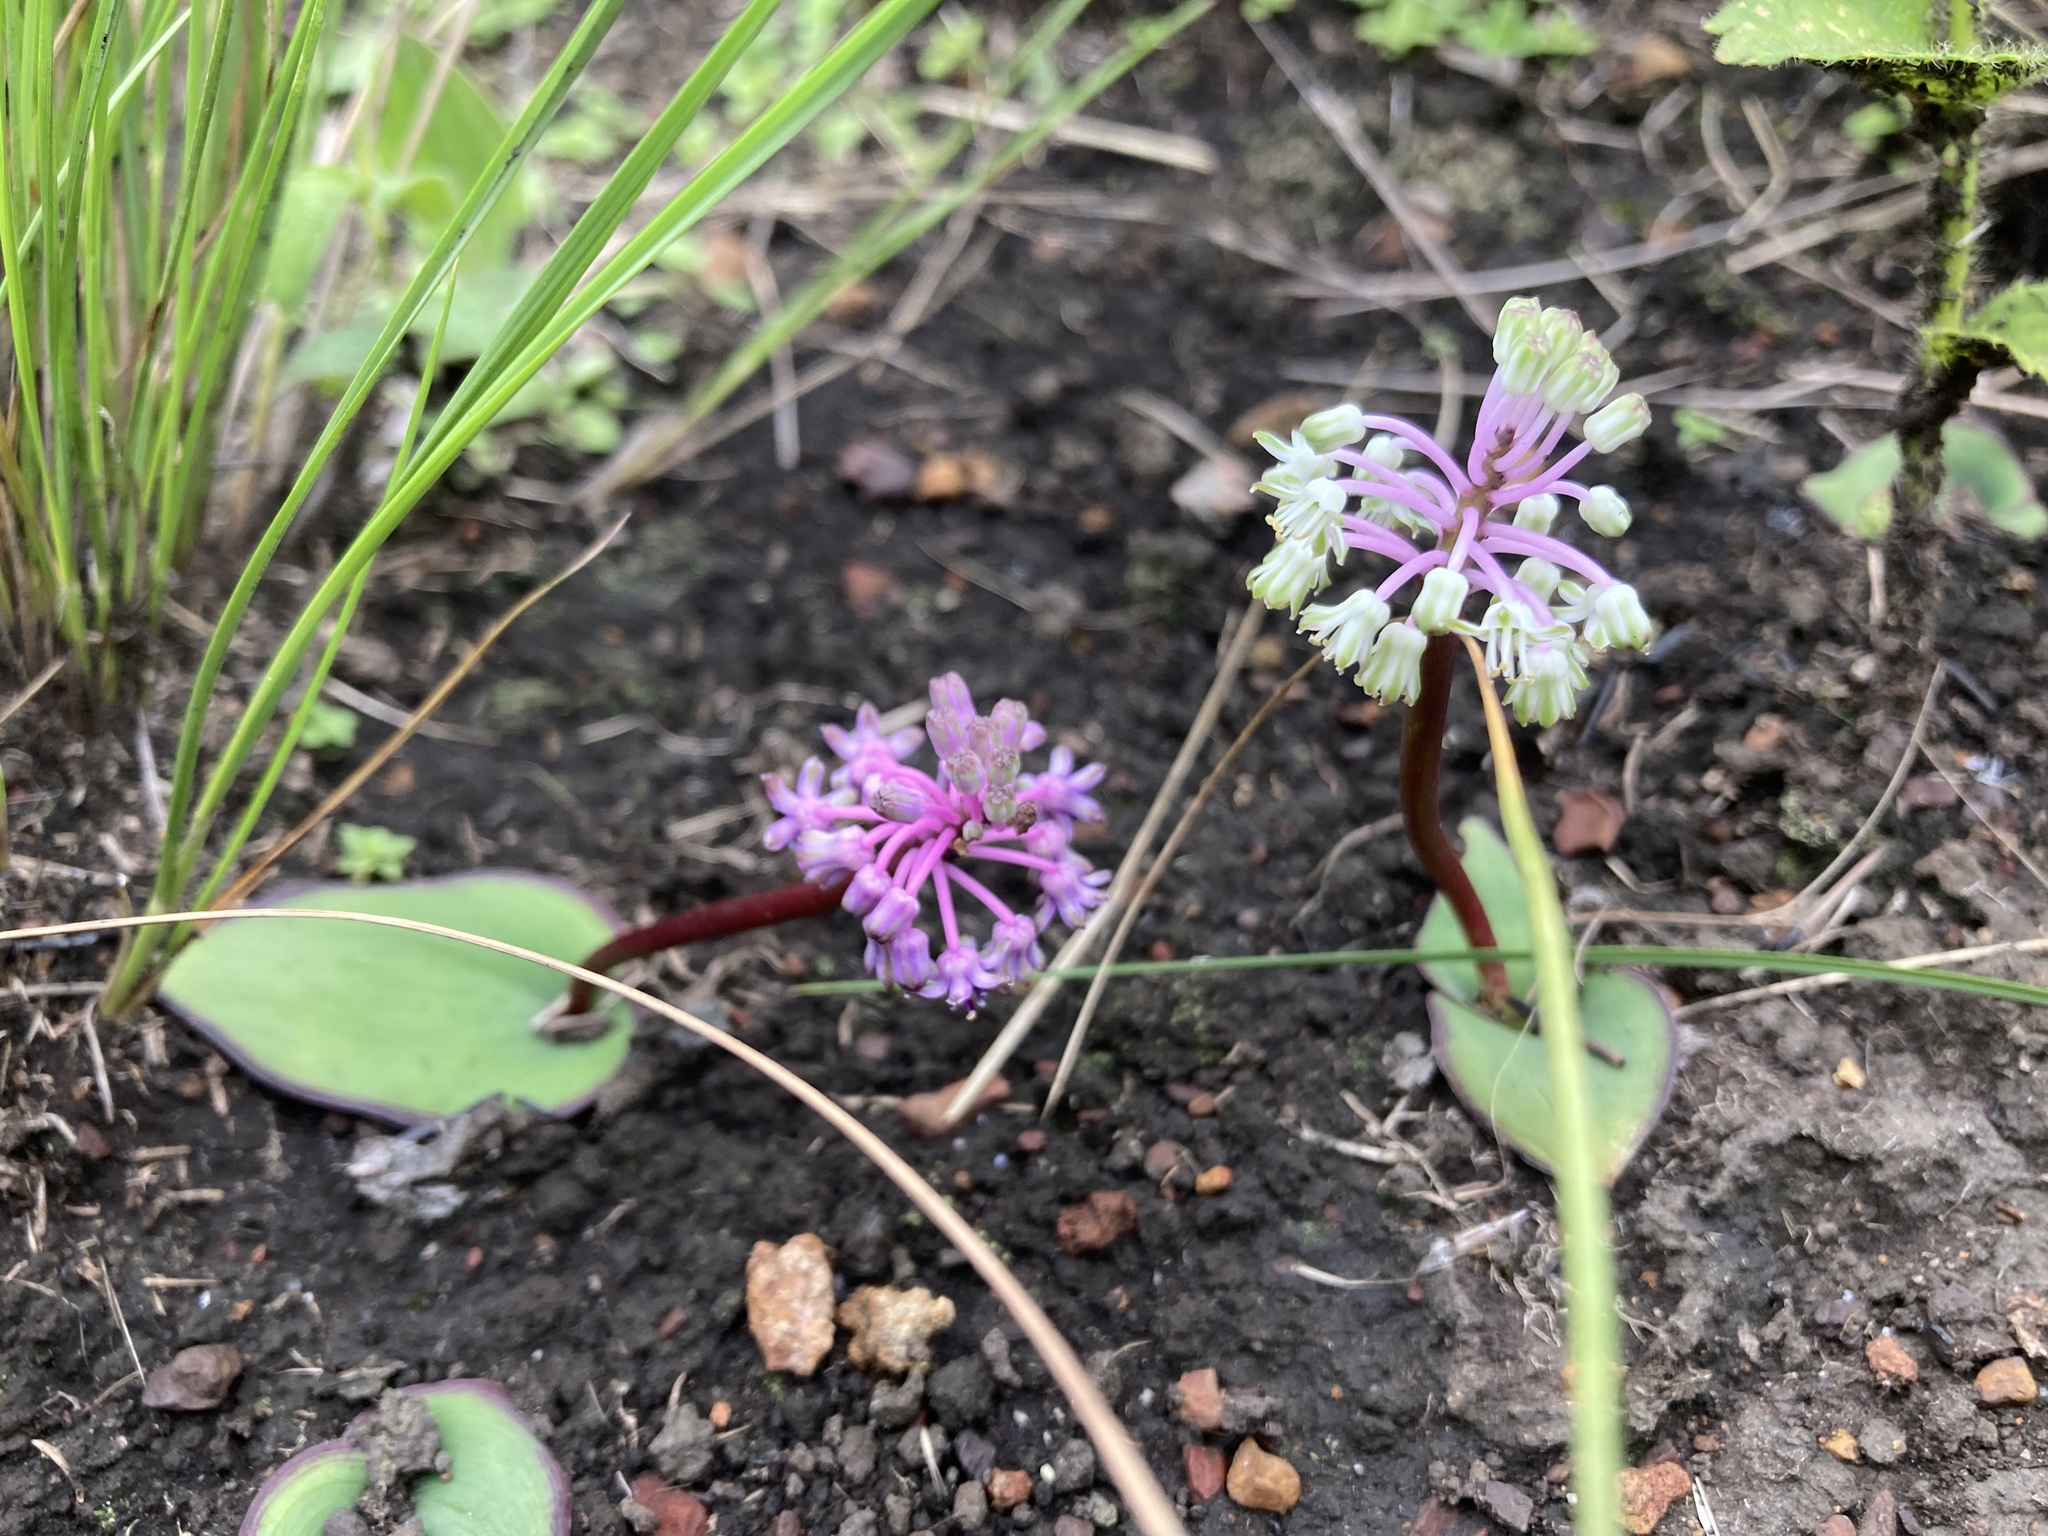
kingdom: Plantae
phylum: Tracheophyta
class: Liliopsida
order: Asparagales
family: Asparagaceae
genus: Ledebouria
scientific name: Ledebouria sandersonii
